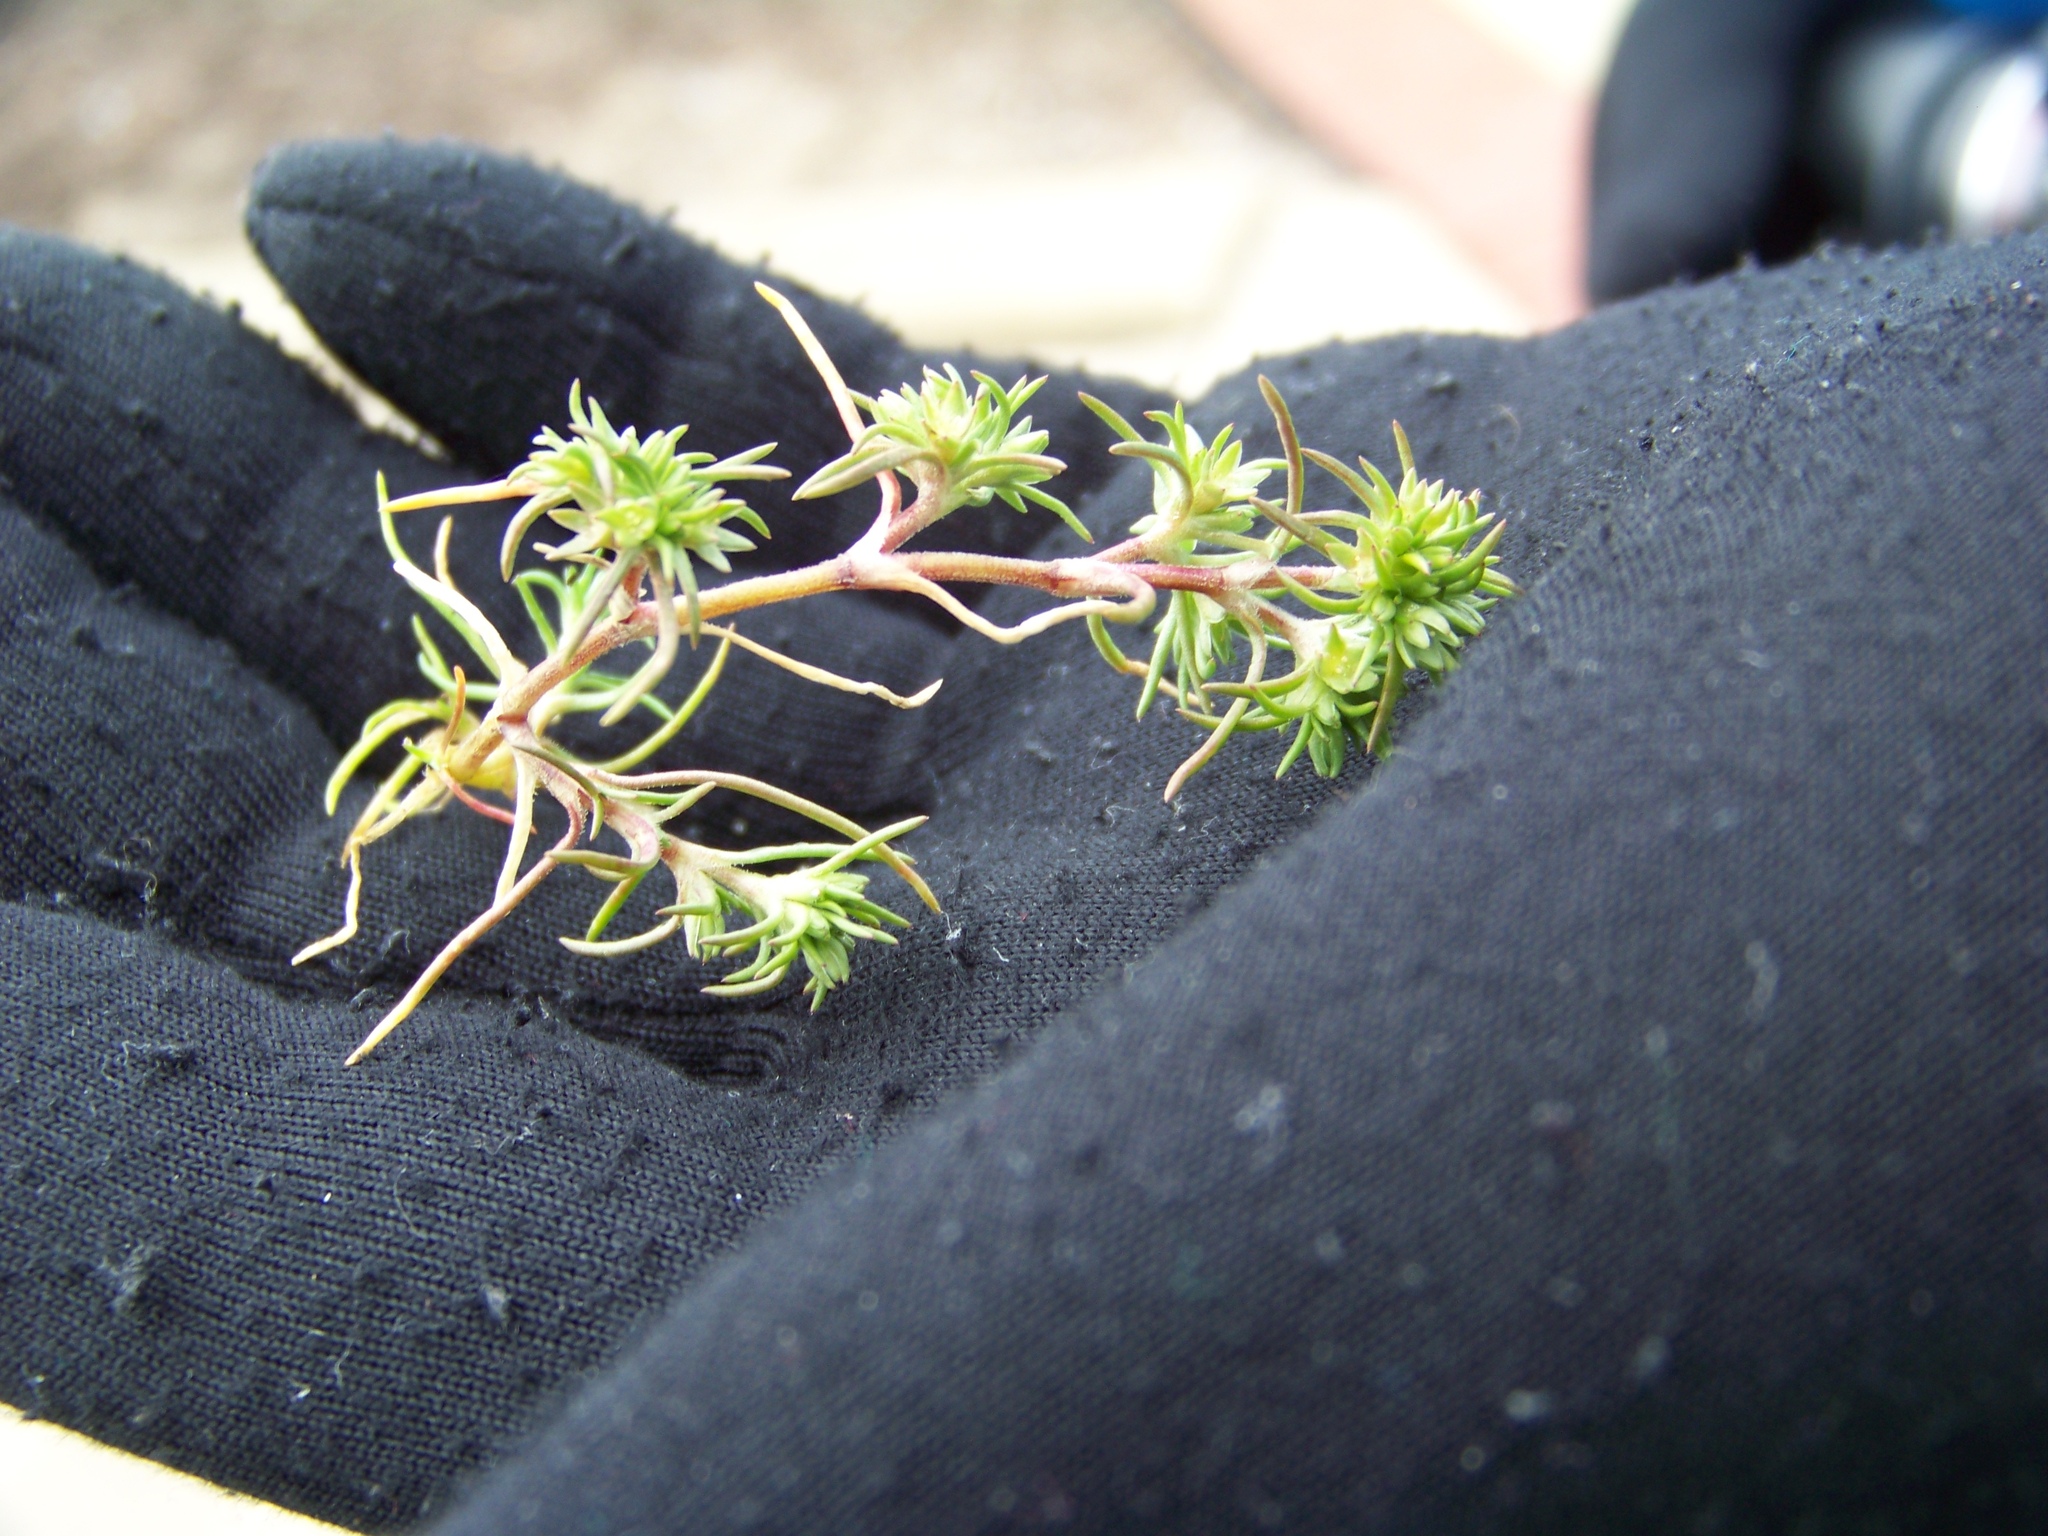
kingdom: Plantae
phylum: Tracheophyta
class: Magnoliopsida
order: Caryophyllales
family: Caryophyllaceae
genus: Scleranthus
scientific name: Scleranthus annuus
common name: Annual knawel
